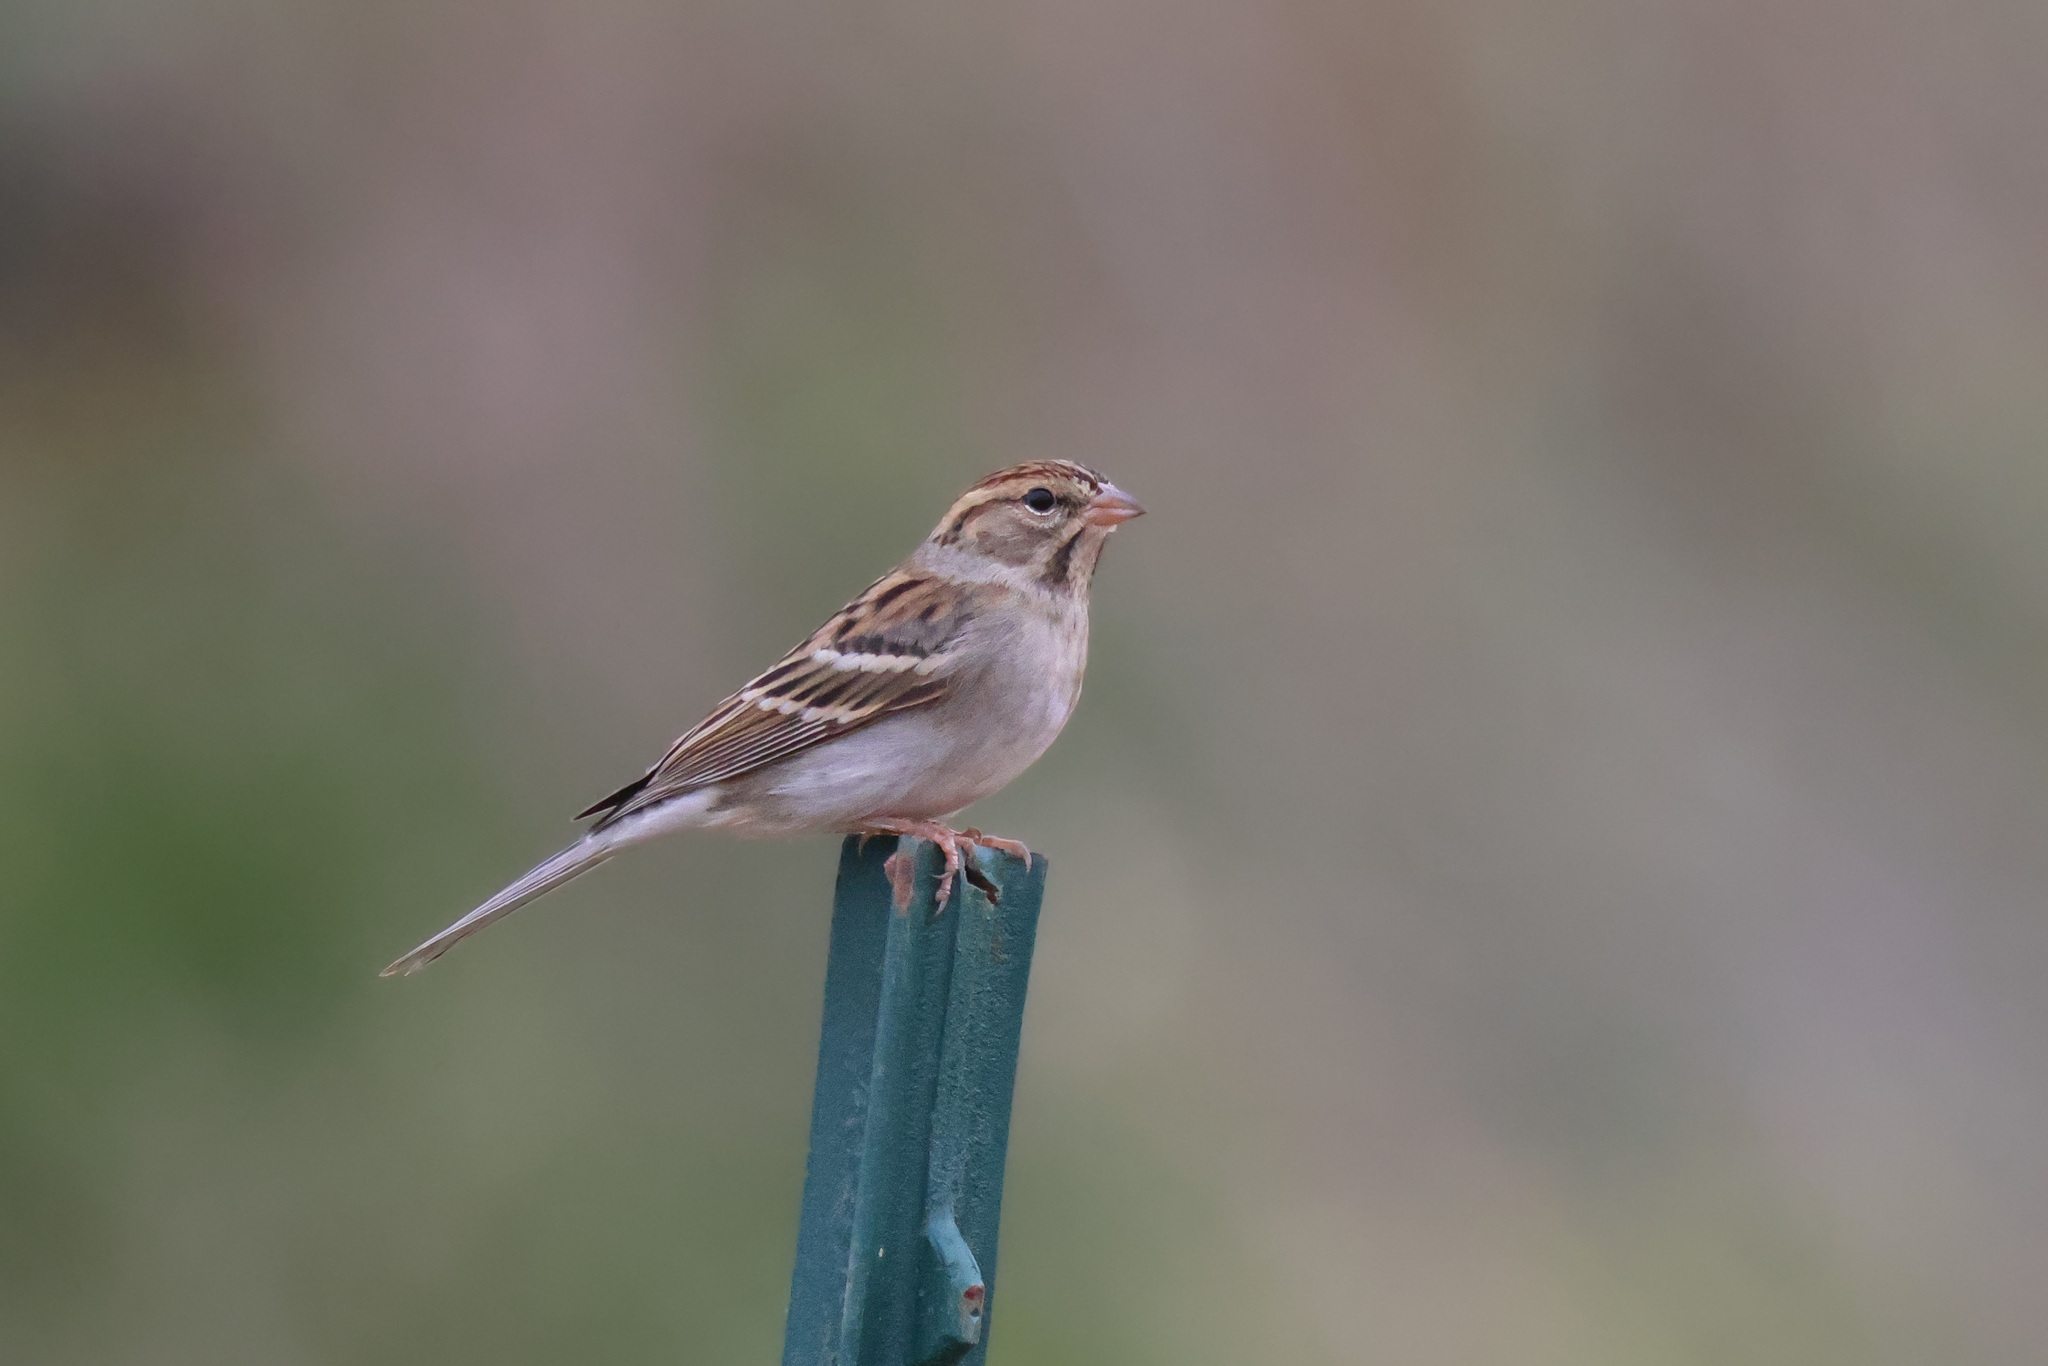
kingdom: Animalia
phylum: Chordata
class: Aves
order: Passeriformes
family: Passerellidae
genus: Spizella
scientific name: Spizella passerina
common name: Chipping sparrow
